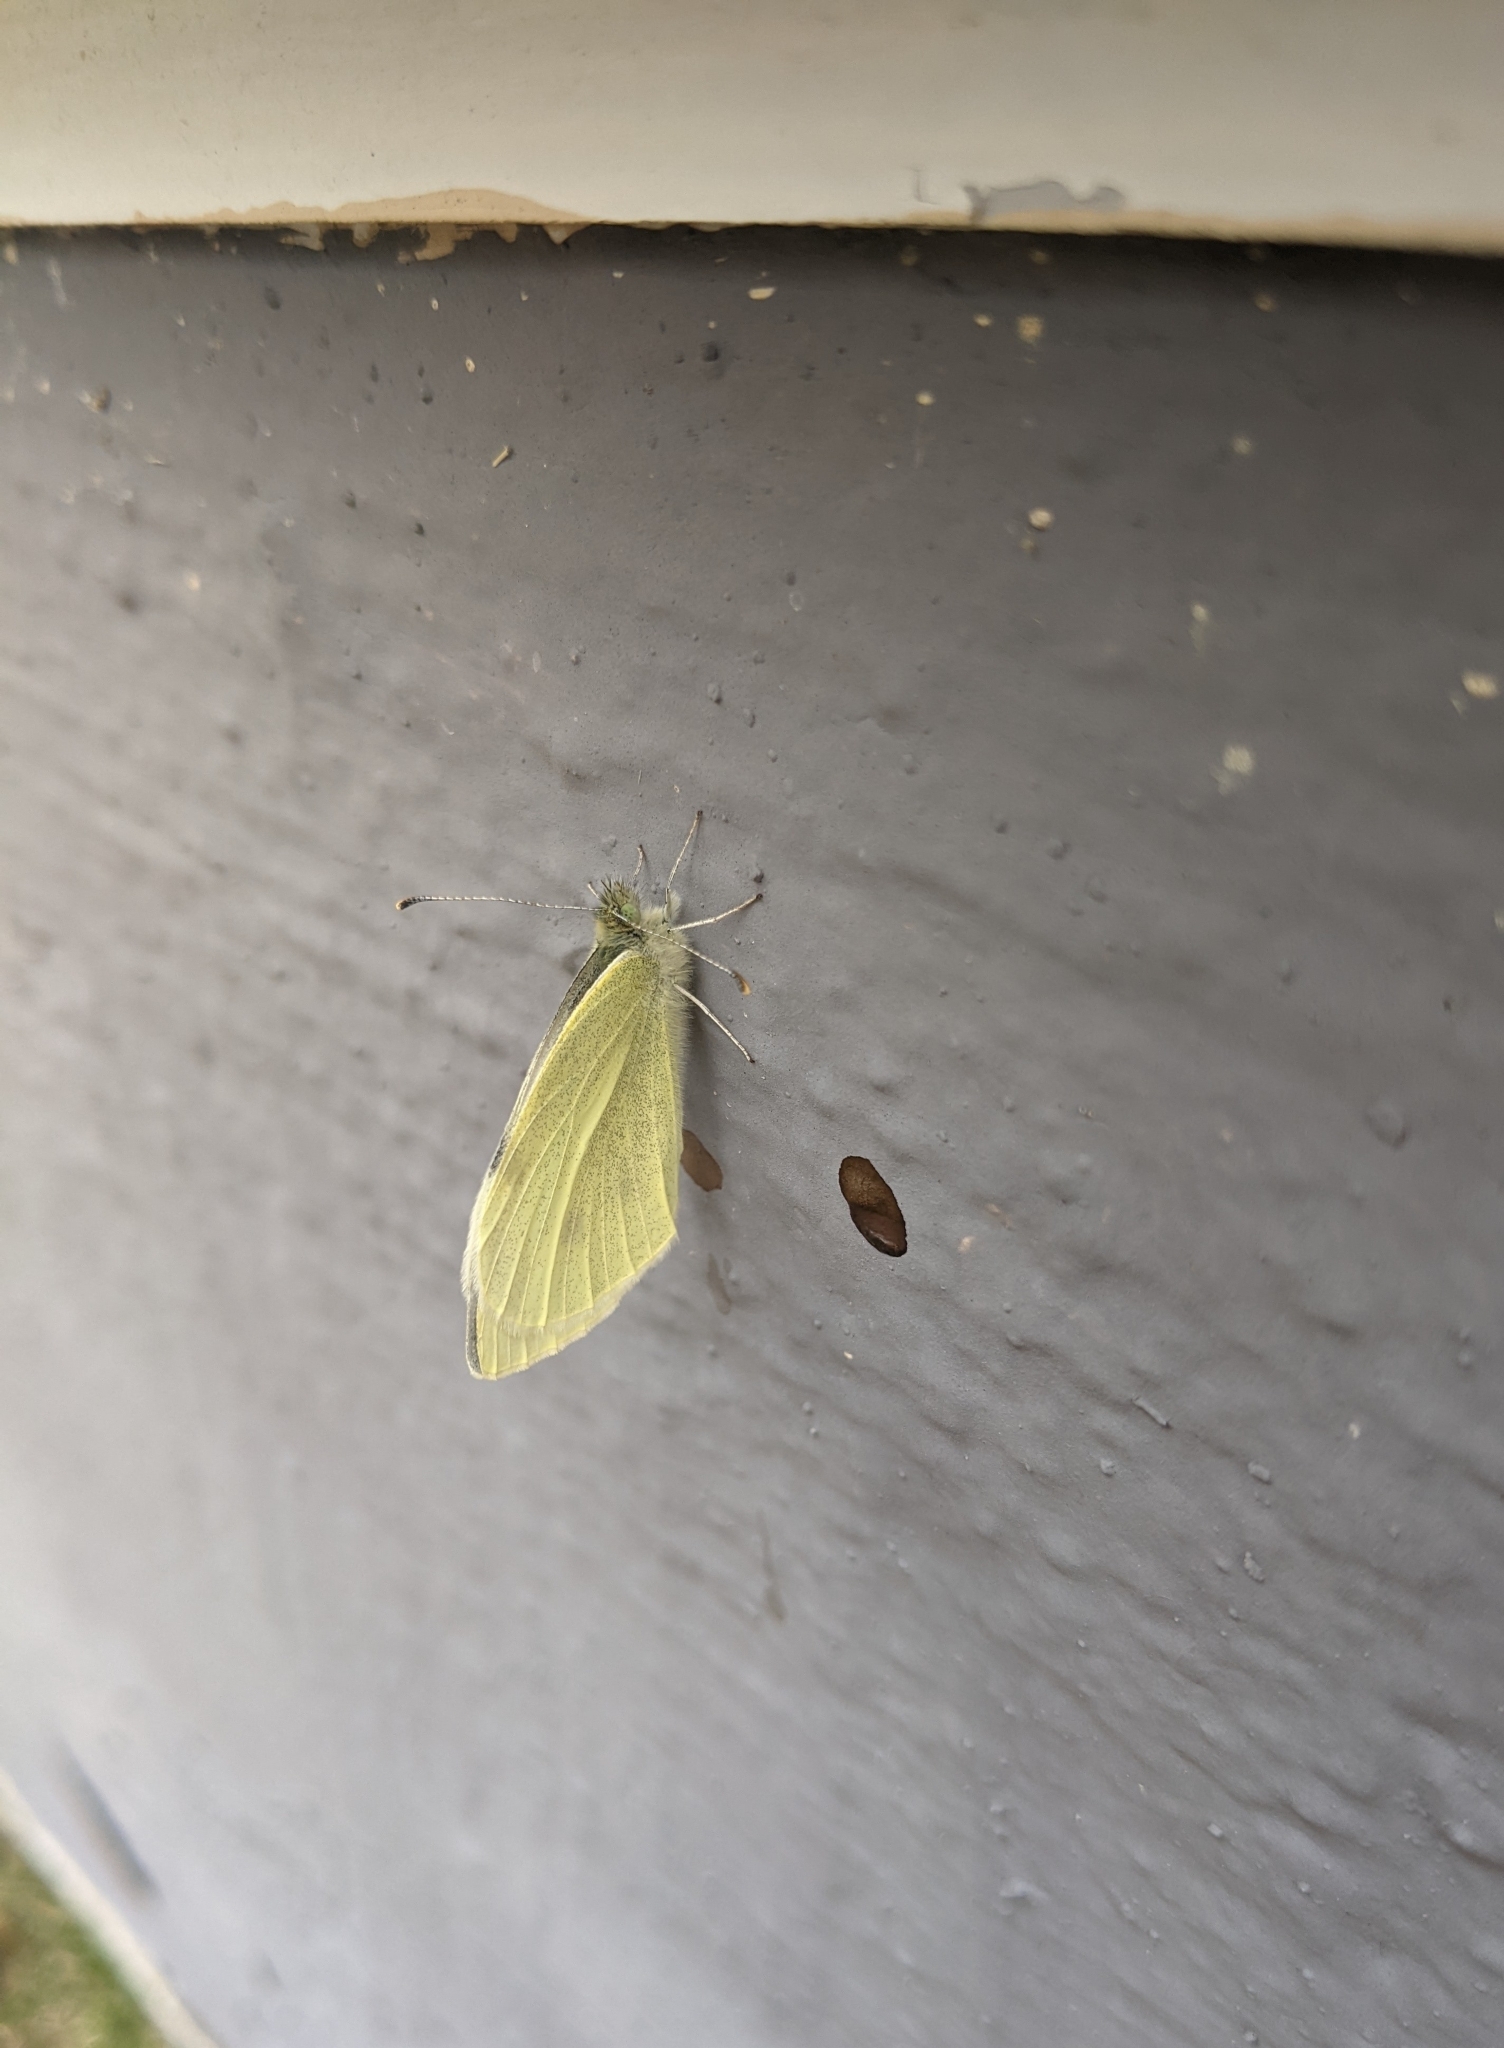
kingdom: Animalia
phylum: Arthropoda
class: Insecta
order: Lepidoptera
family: Pieridae
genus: Pieris
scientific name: Pieris rapae
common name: Small white
